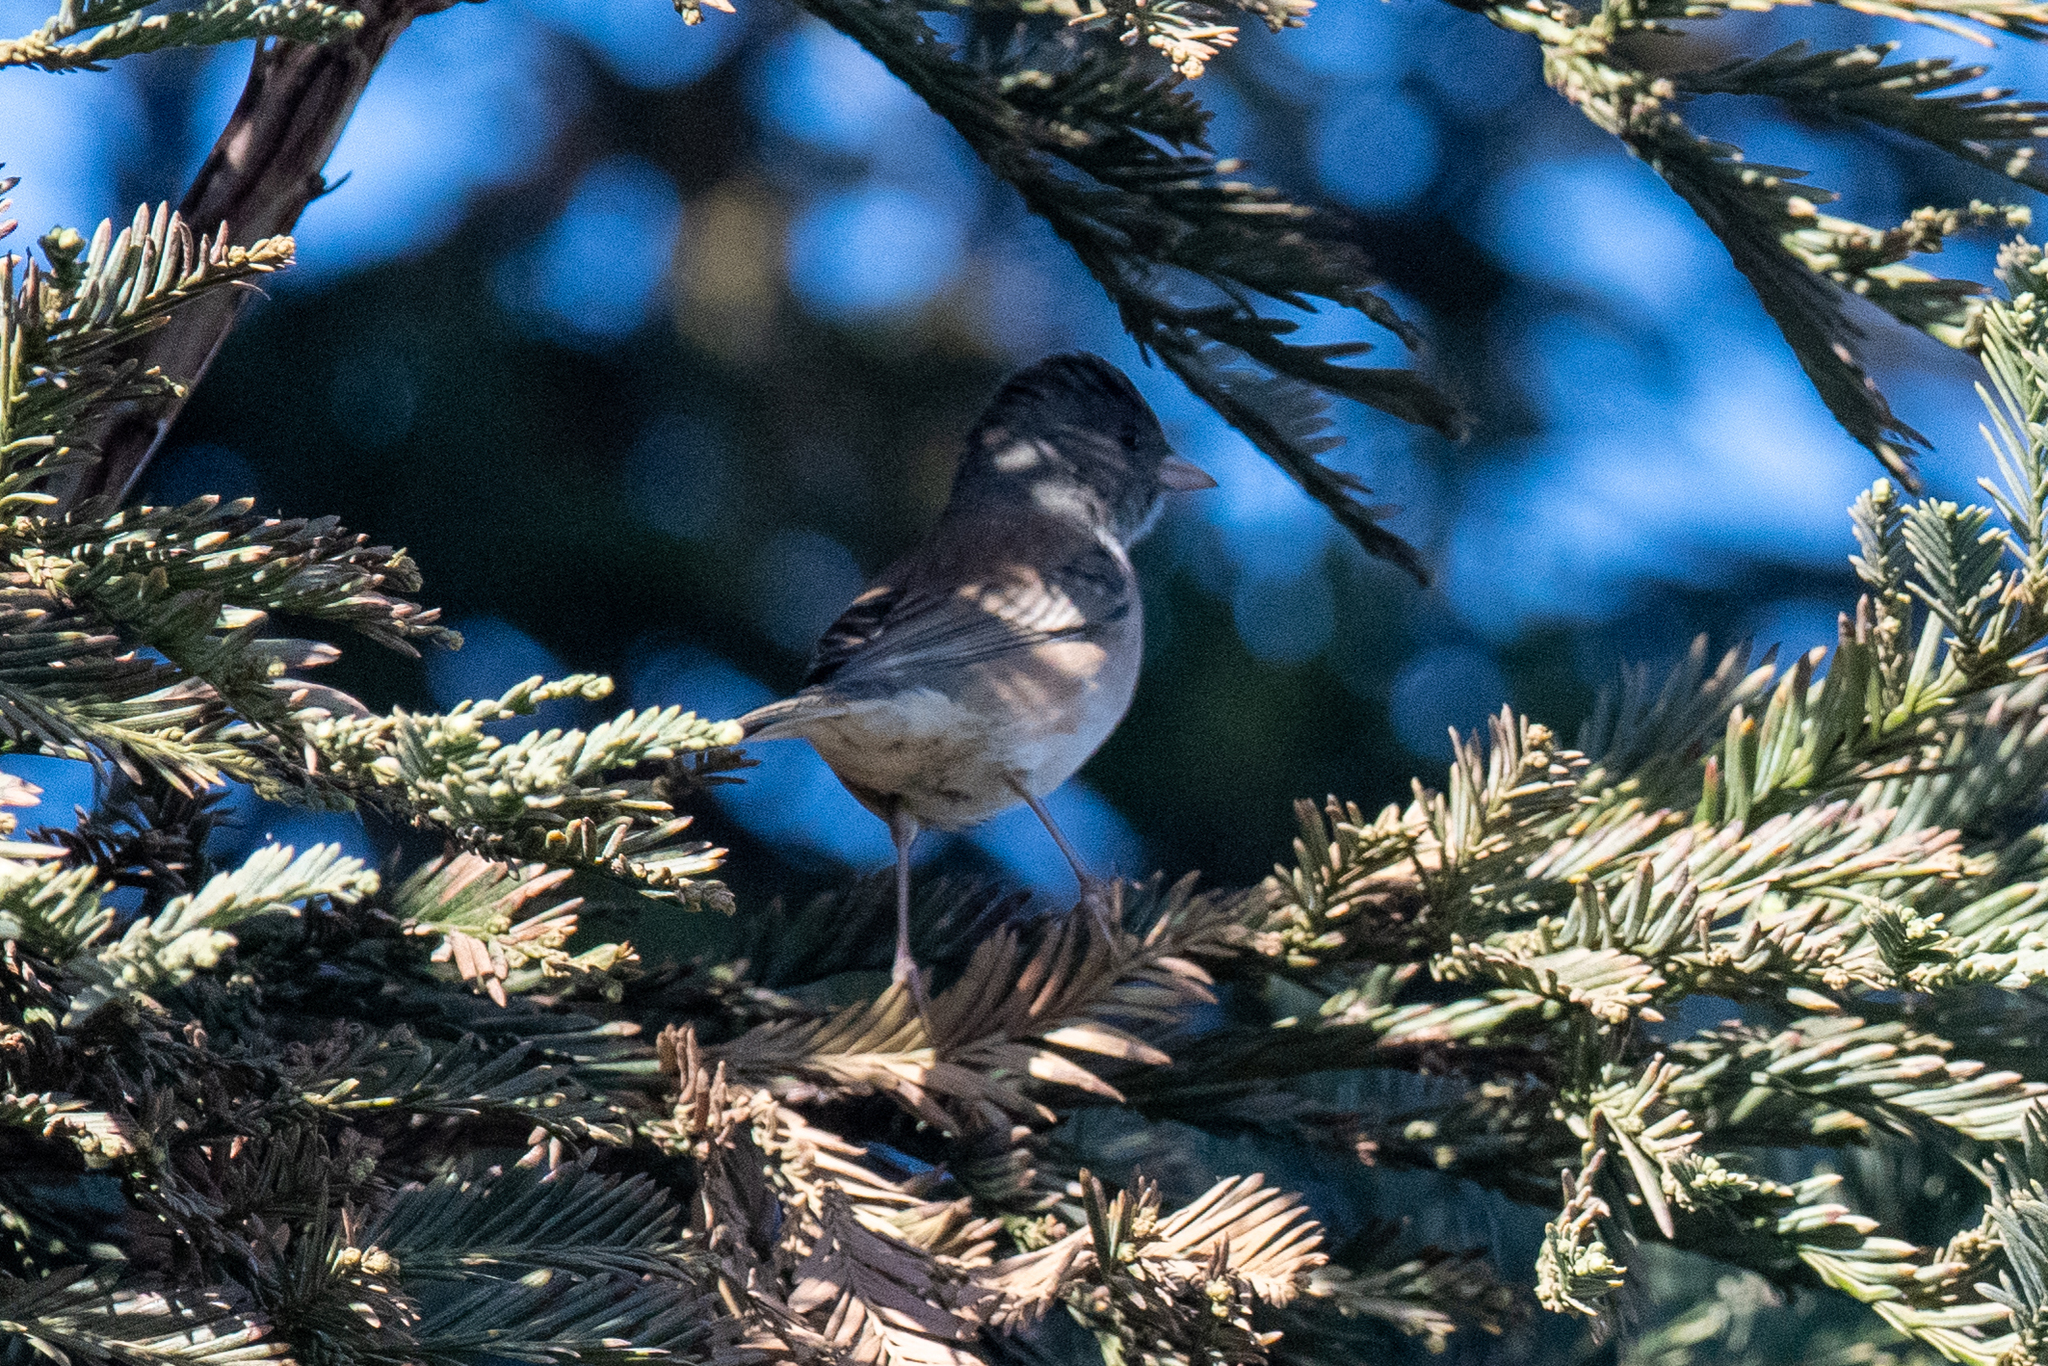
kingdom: Animalia
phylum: Chordata
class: Aves
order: Passeriformes
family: Passerellidae
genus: Junco
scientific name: Junco hyemalis
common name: Dark-eyed junco
